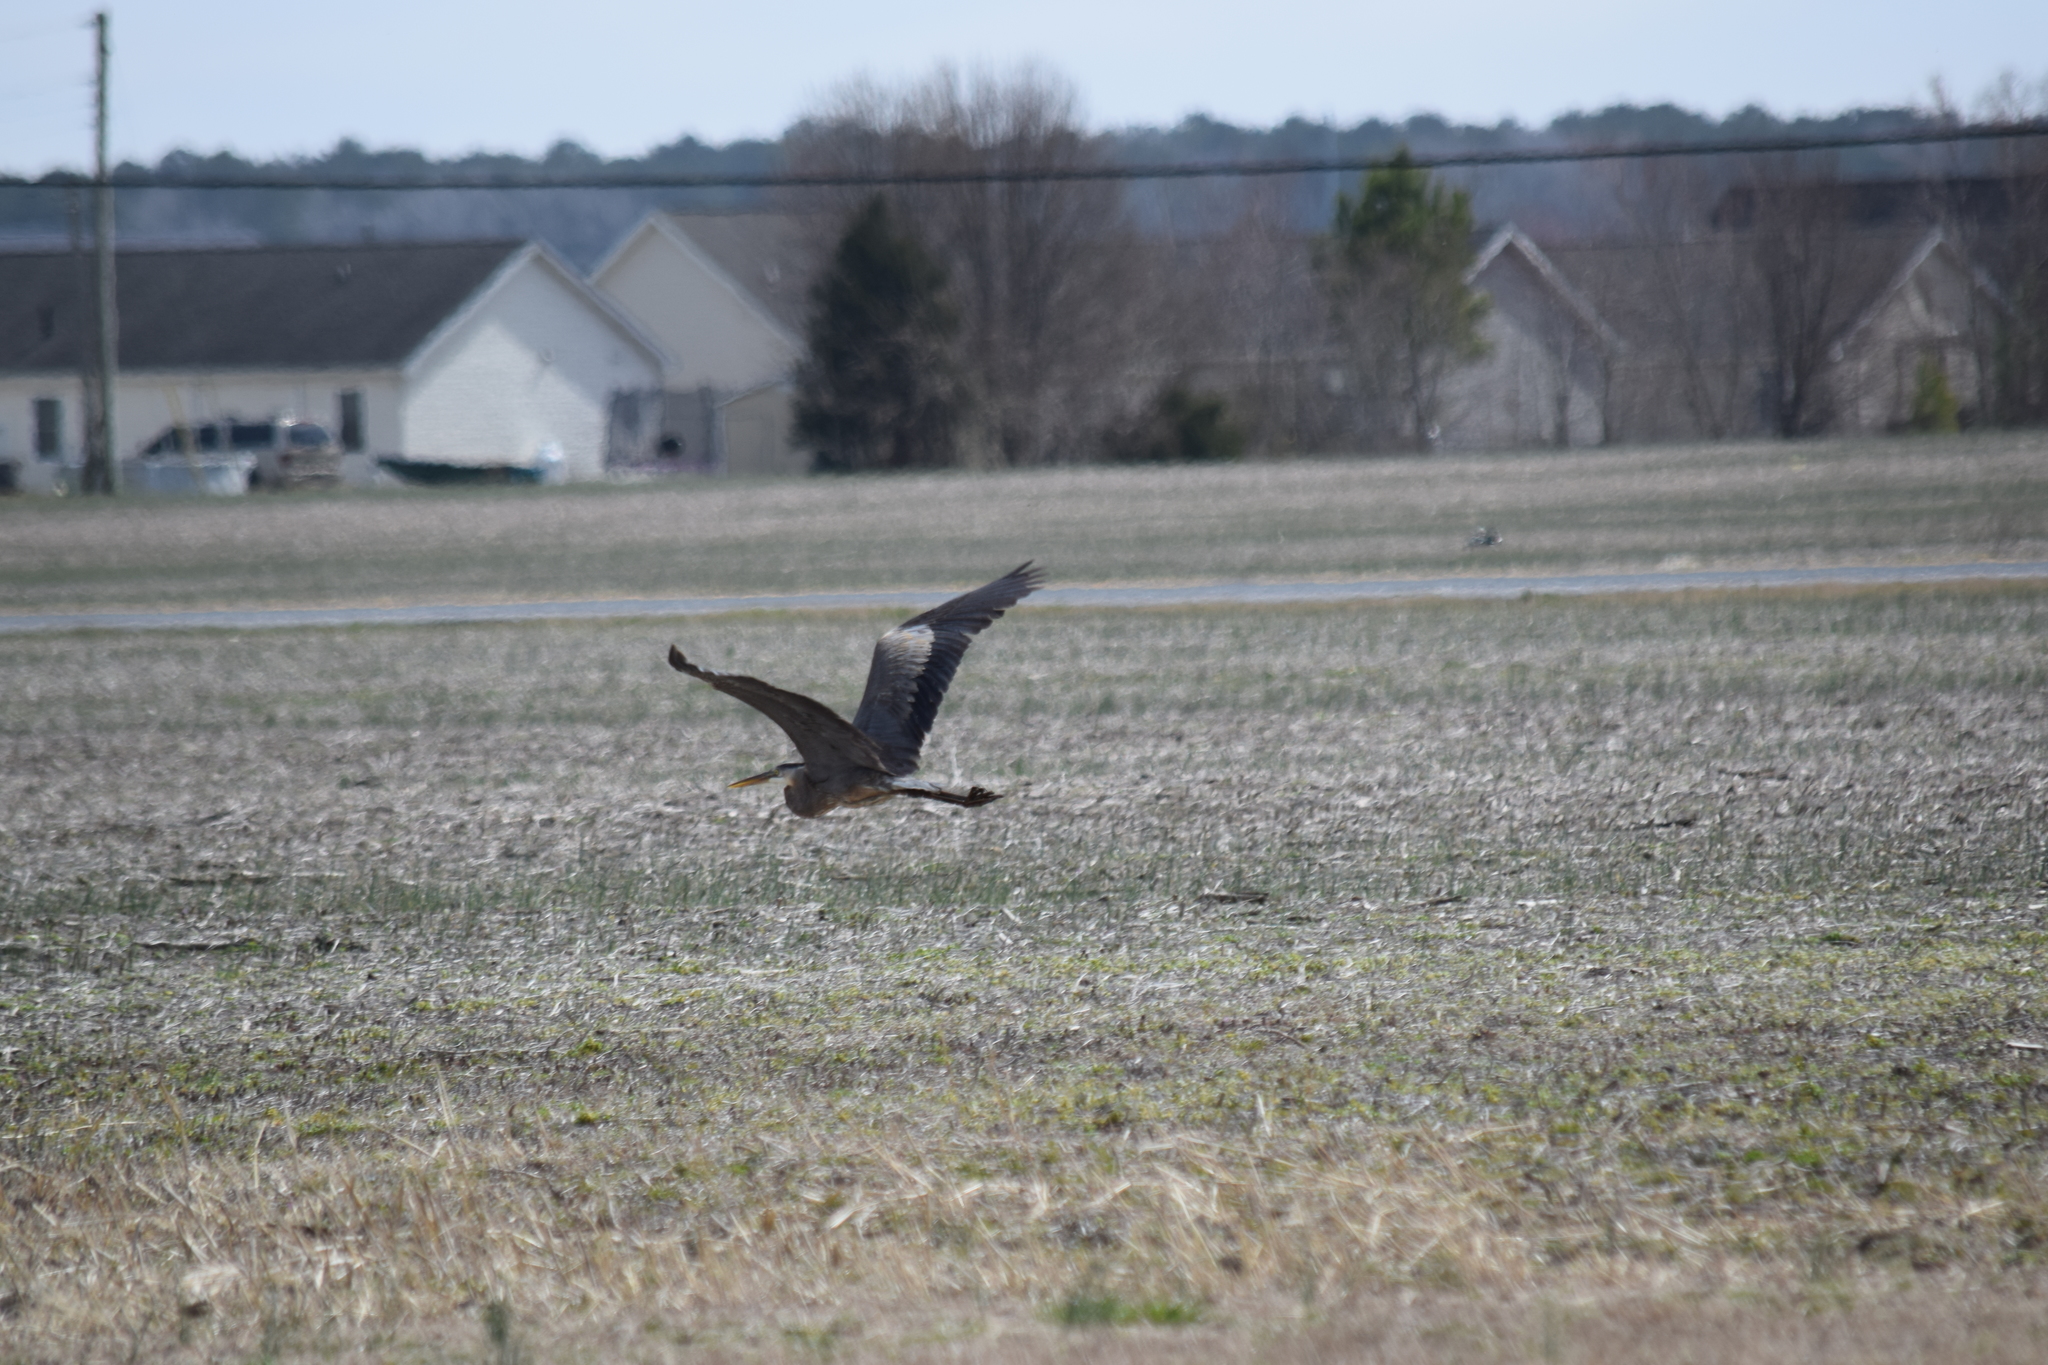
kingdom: Animalia
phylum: Chordata
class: Aves
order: Pelecaniformes
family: Ardeidae
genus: Ardea
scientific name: Ardea herodias
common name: Great blue heron
